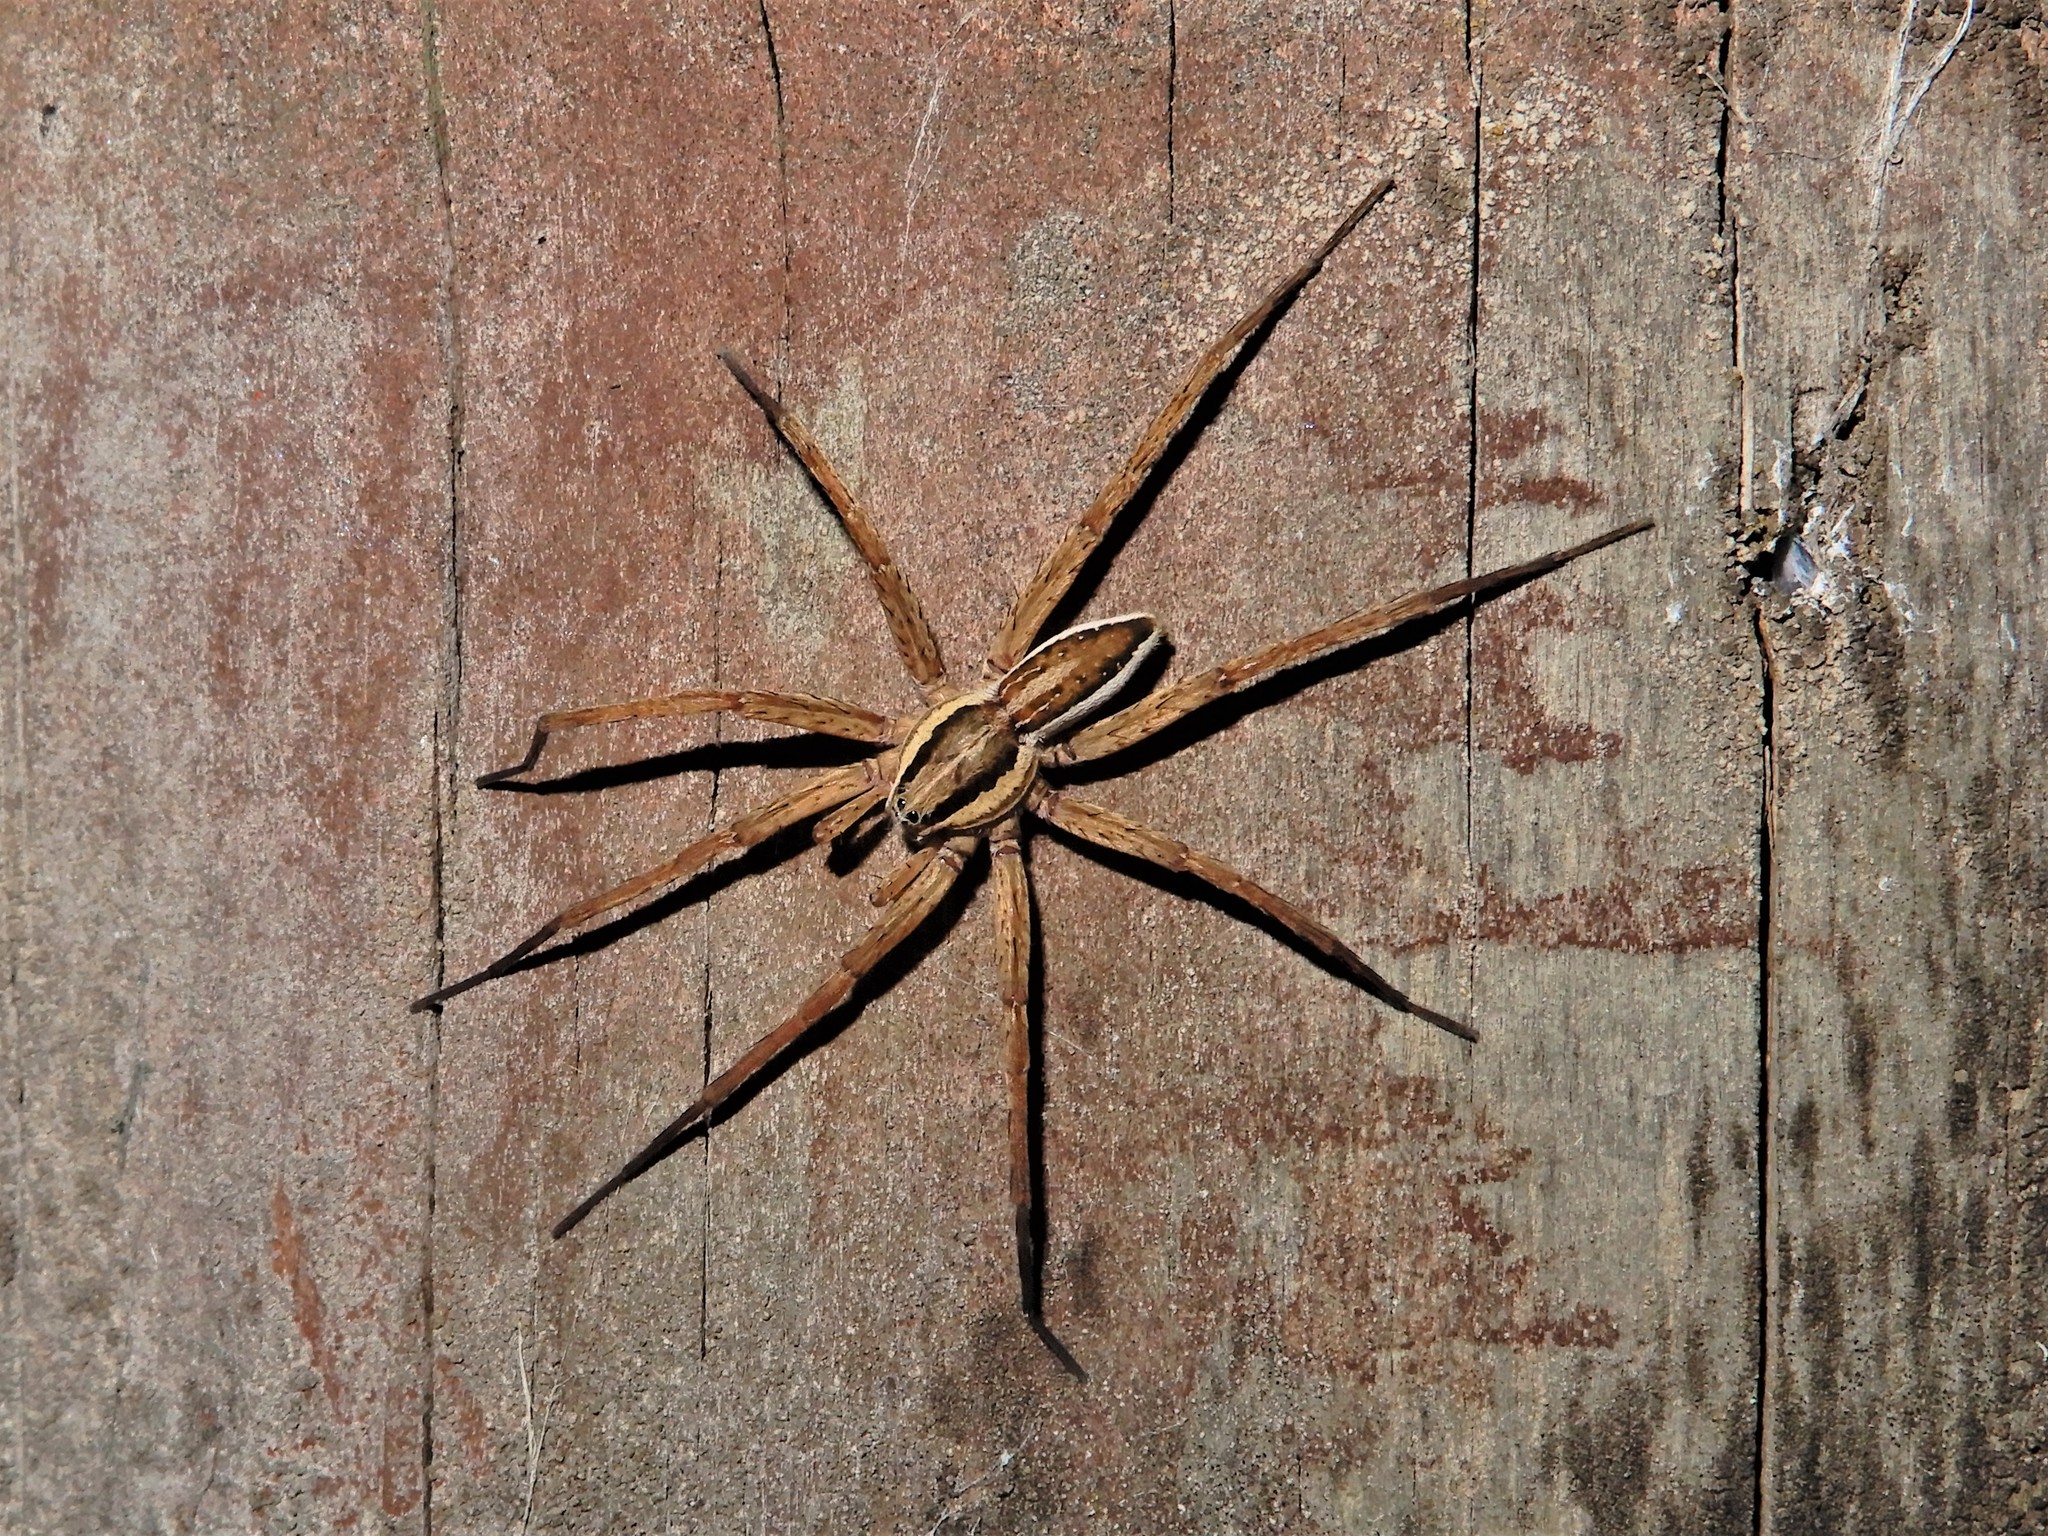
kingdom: Animalia
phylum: Arthropoda
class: Arachnida
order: Araneae
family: Pisauridae
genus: Dolomedes
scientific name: Dolomedes minor
